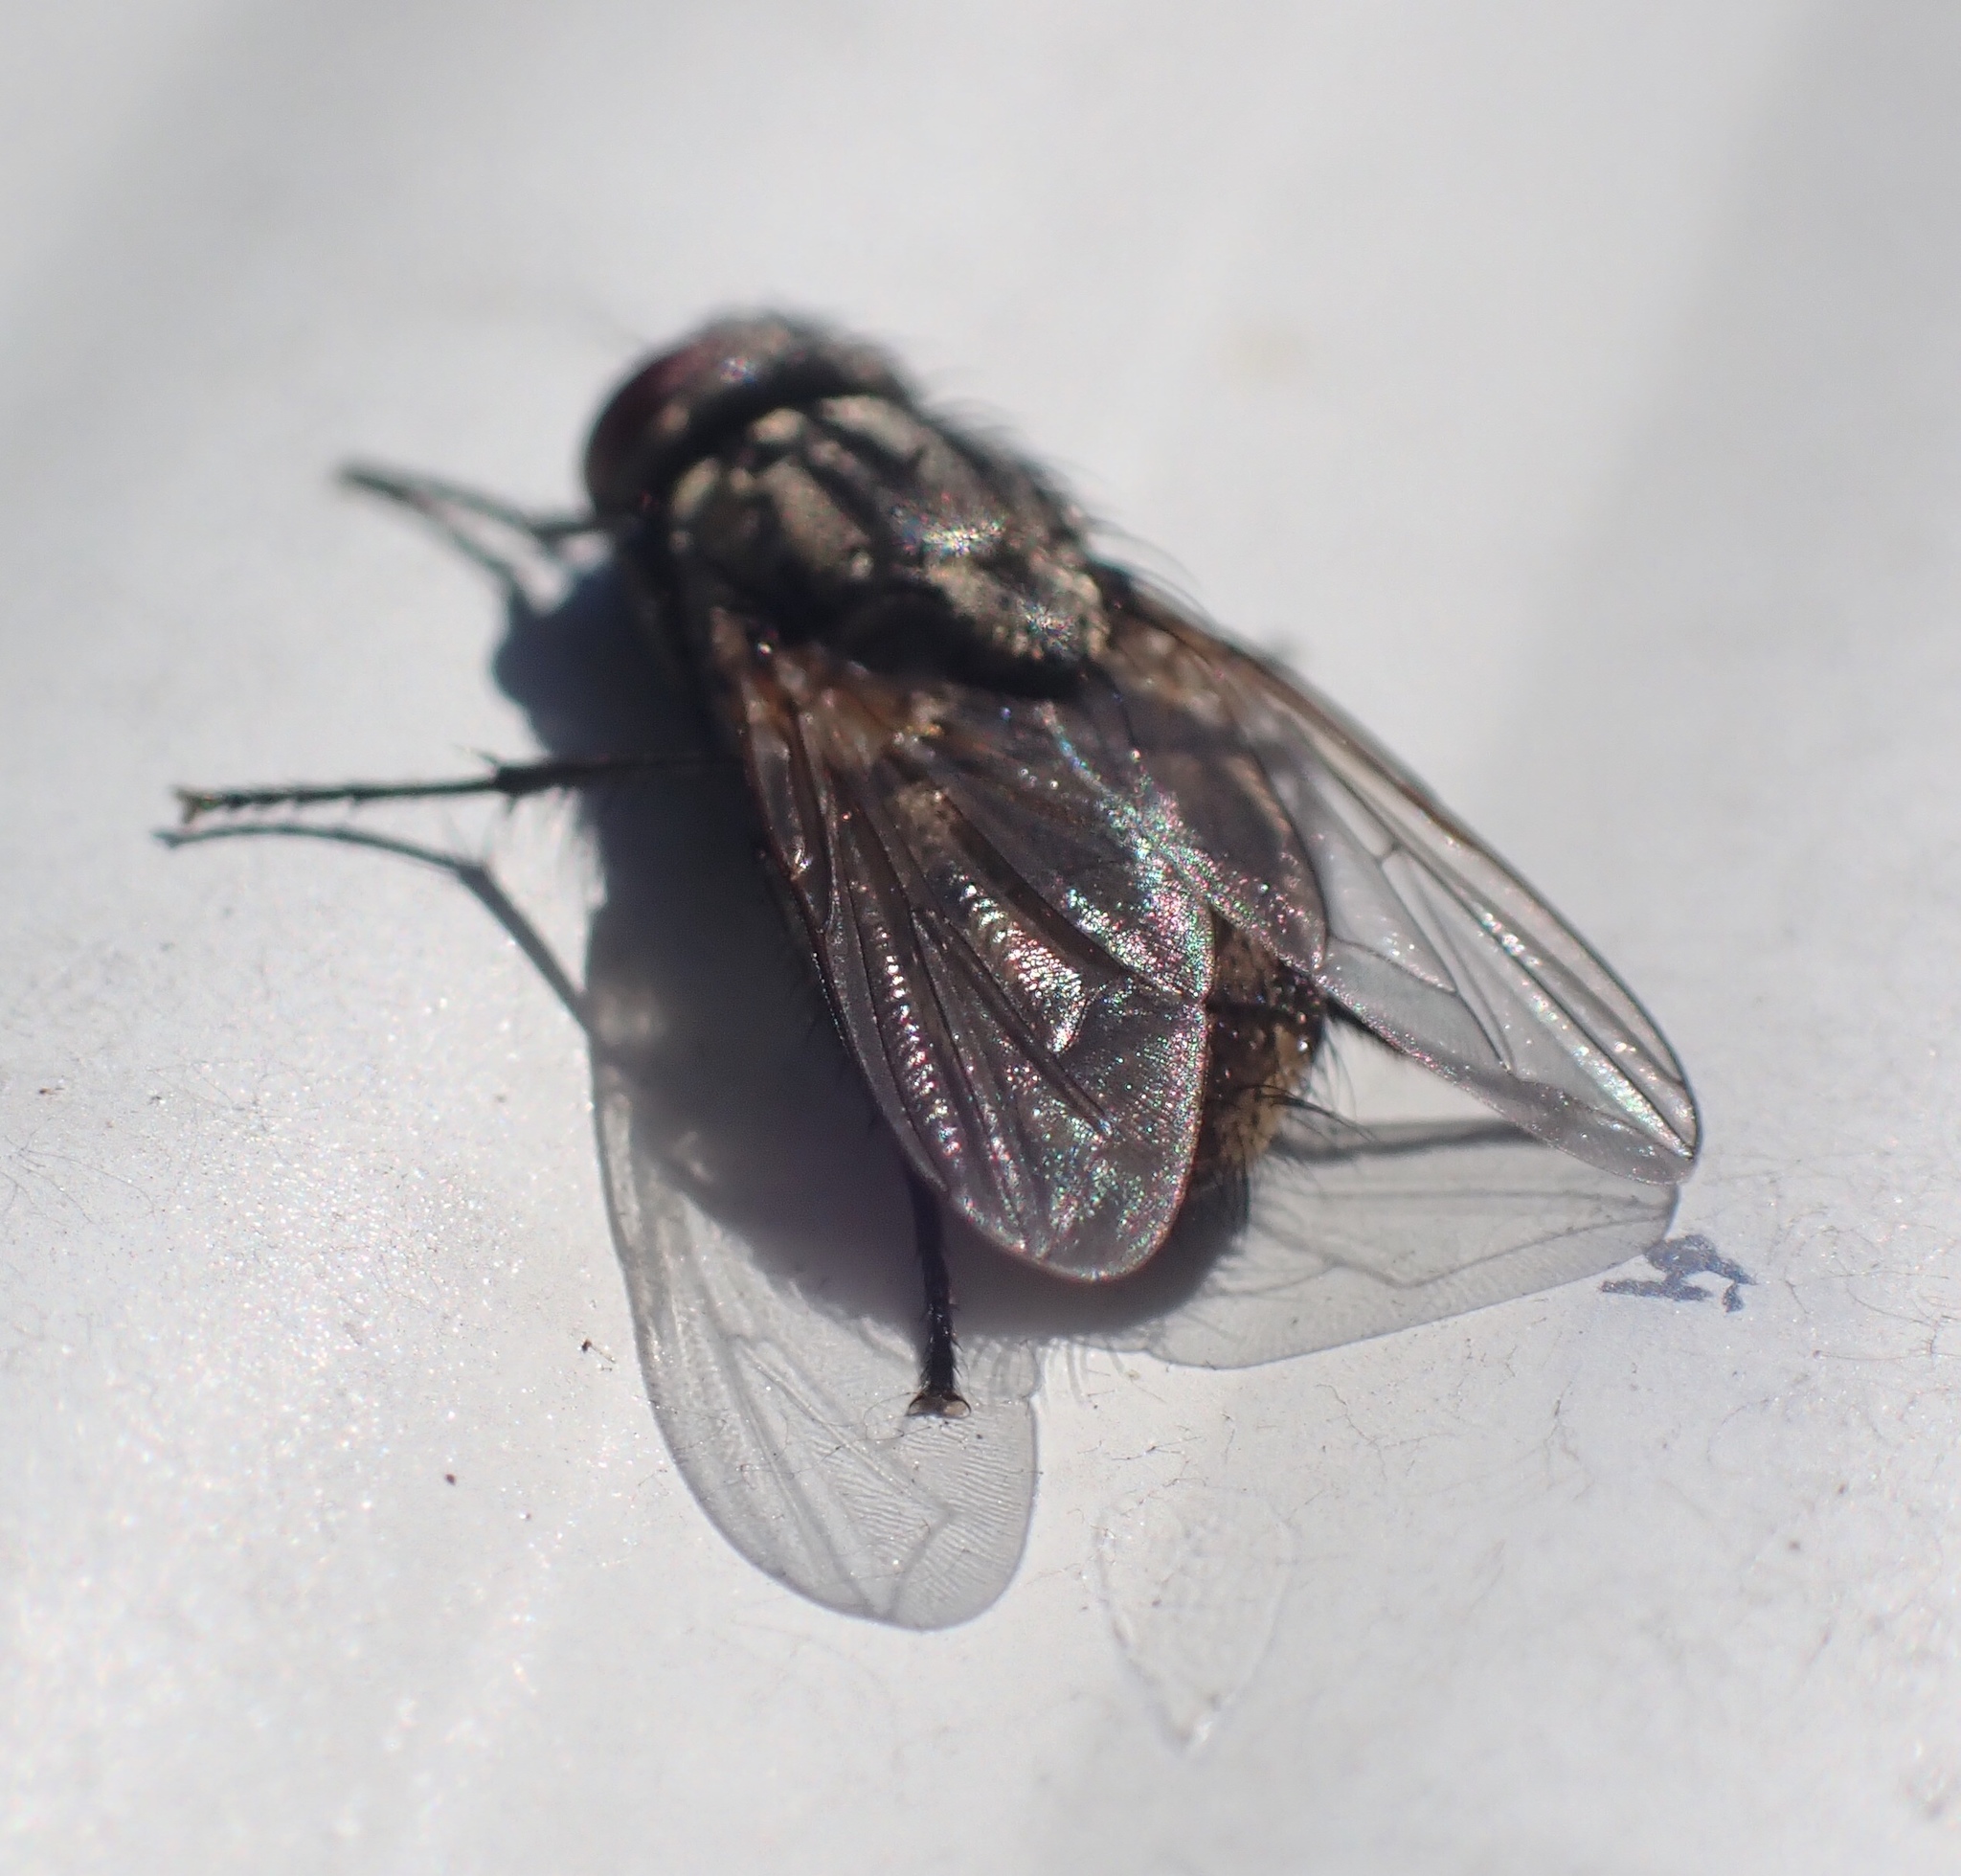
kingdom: Animalia
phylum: Arthropoda
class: Insecta
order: Diptera
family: Muscidae
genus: Musca
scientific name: Musca autumnalis
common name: Face fly
